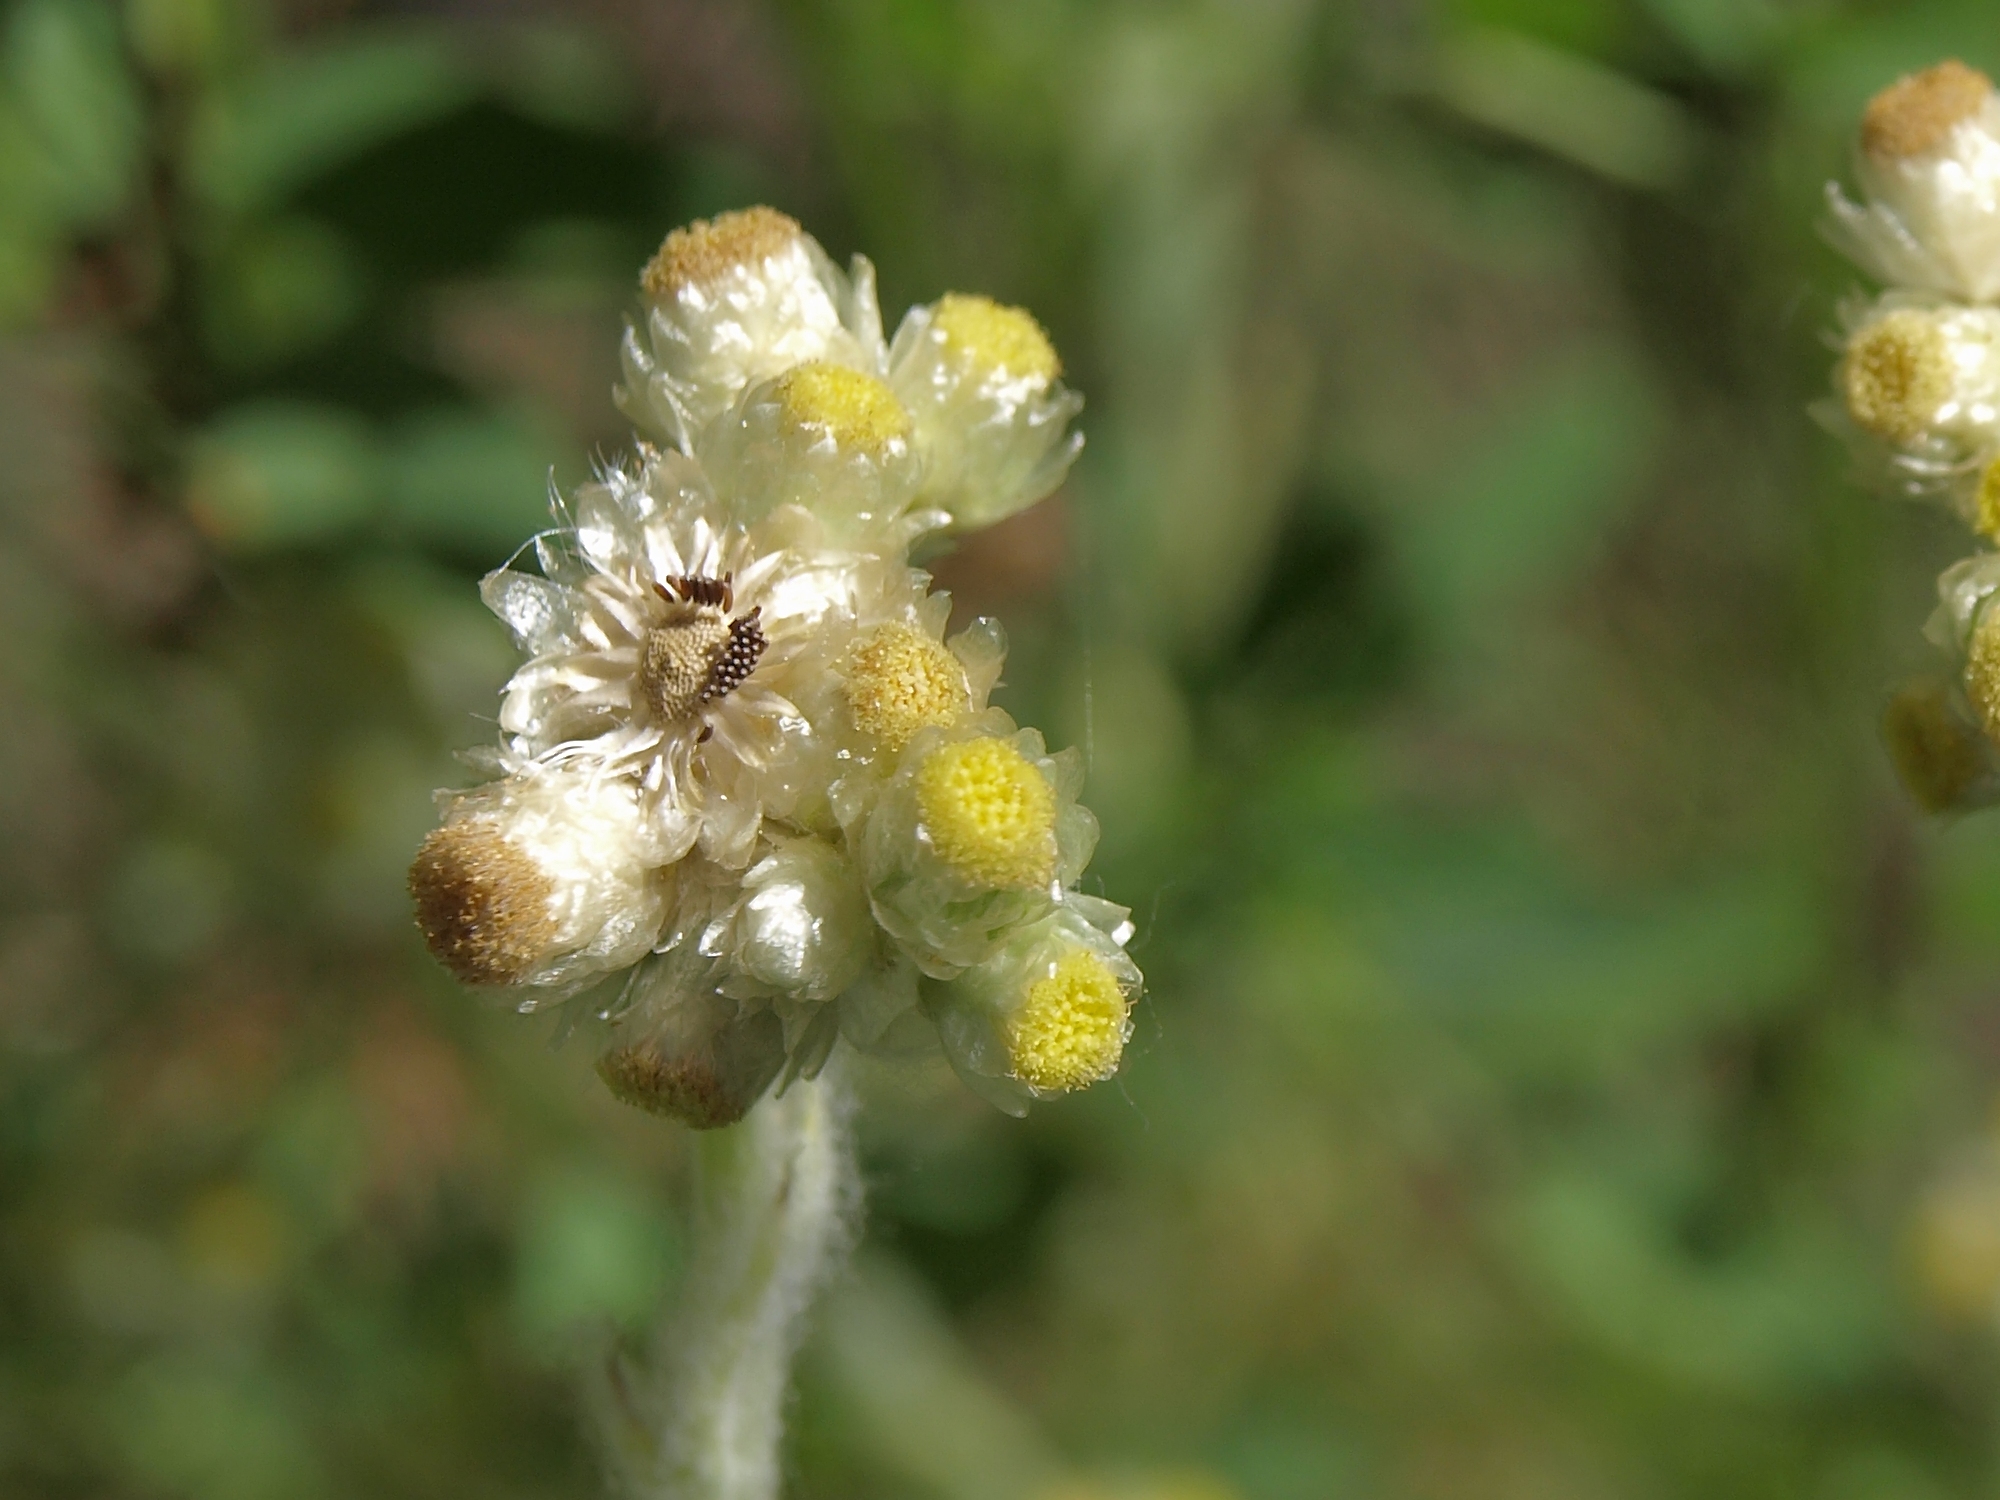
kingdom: Plantae
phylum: Tracheophyta
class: Magnoliopsida
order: Asterales
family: Asteraceae
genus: Pseudognaphalium
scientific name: Pseudognaphalium stramineum
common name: Cotton-batting-plant
